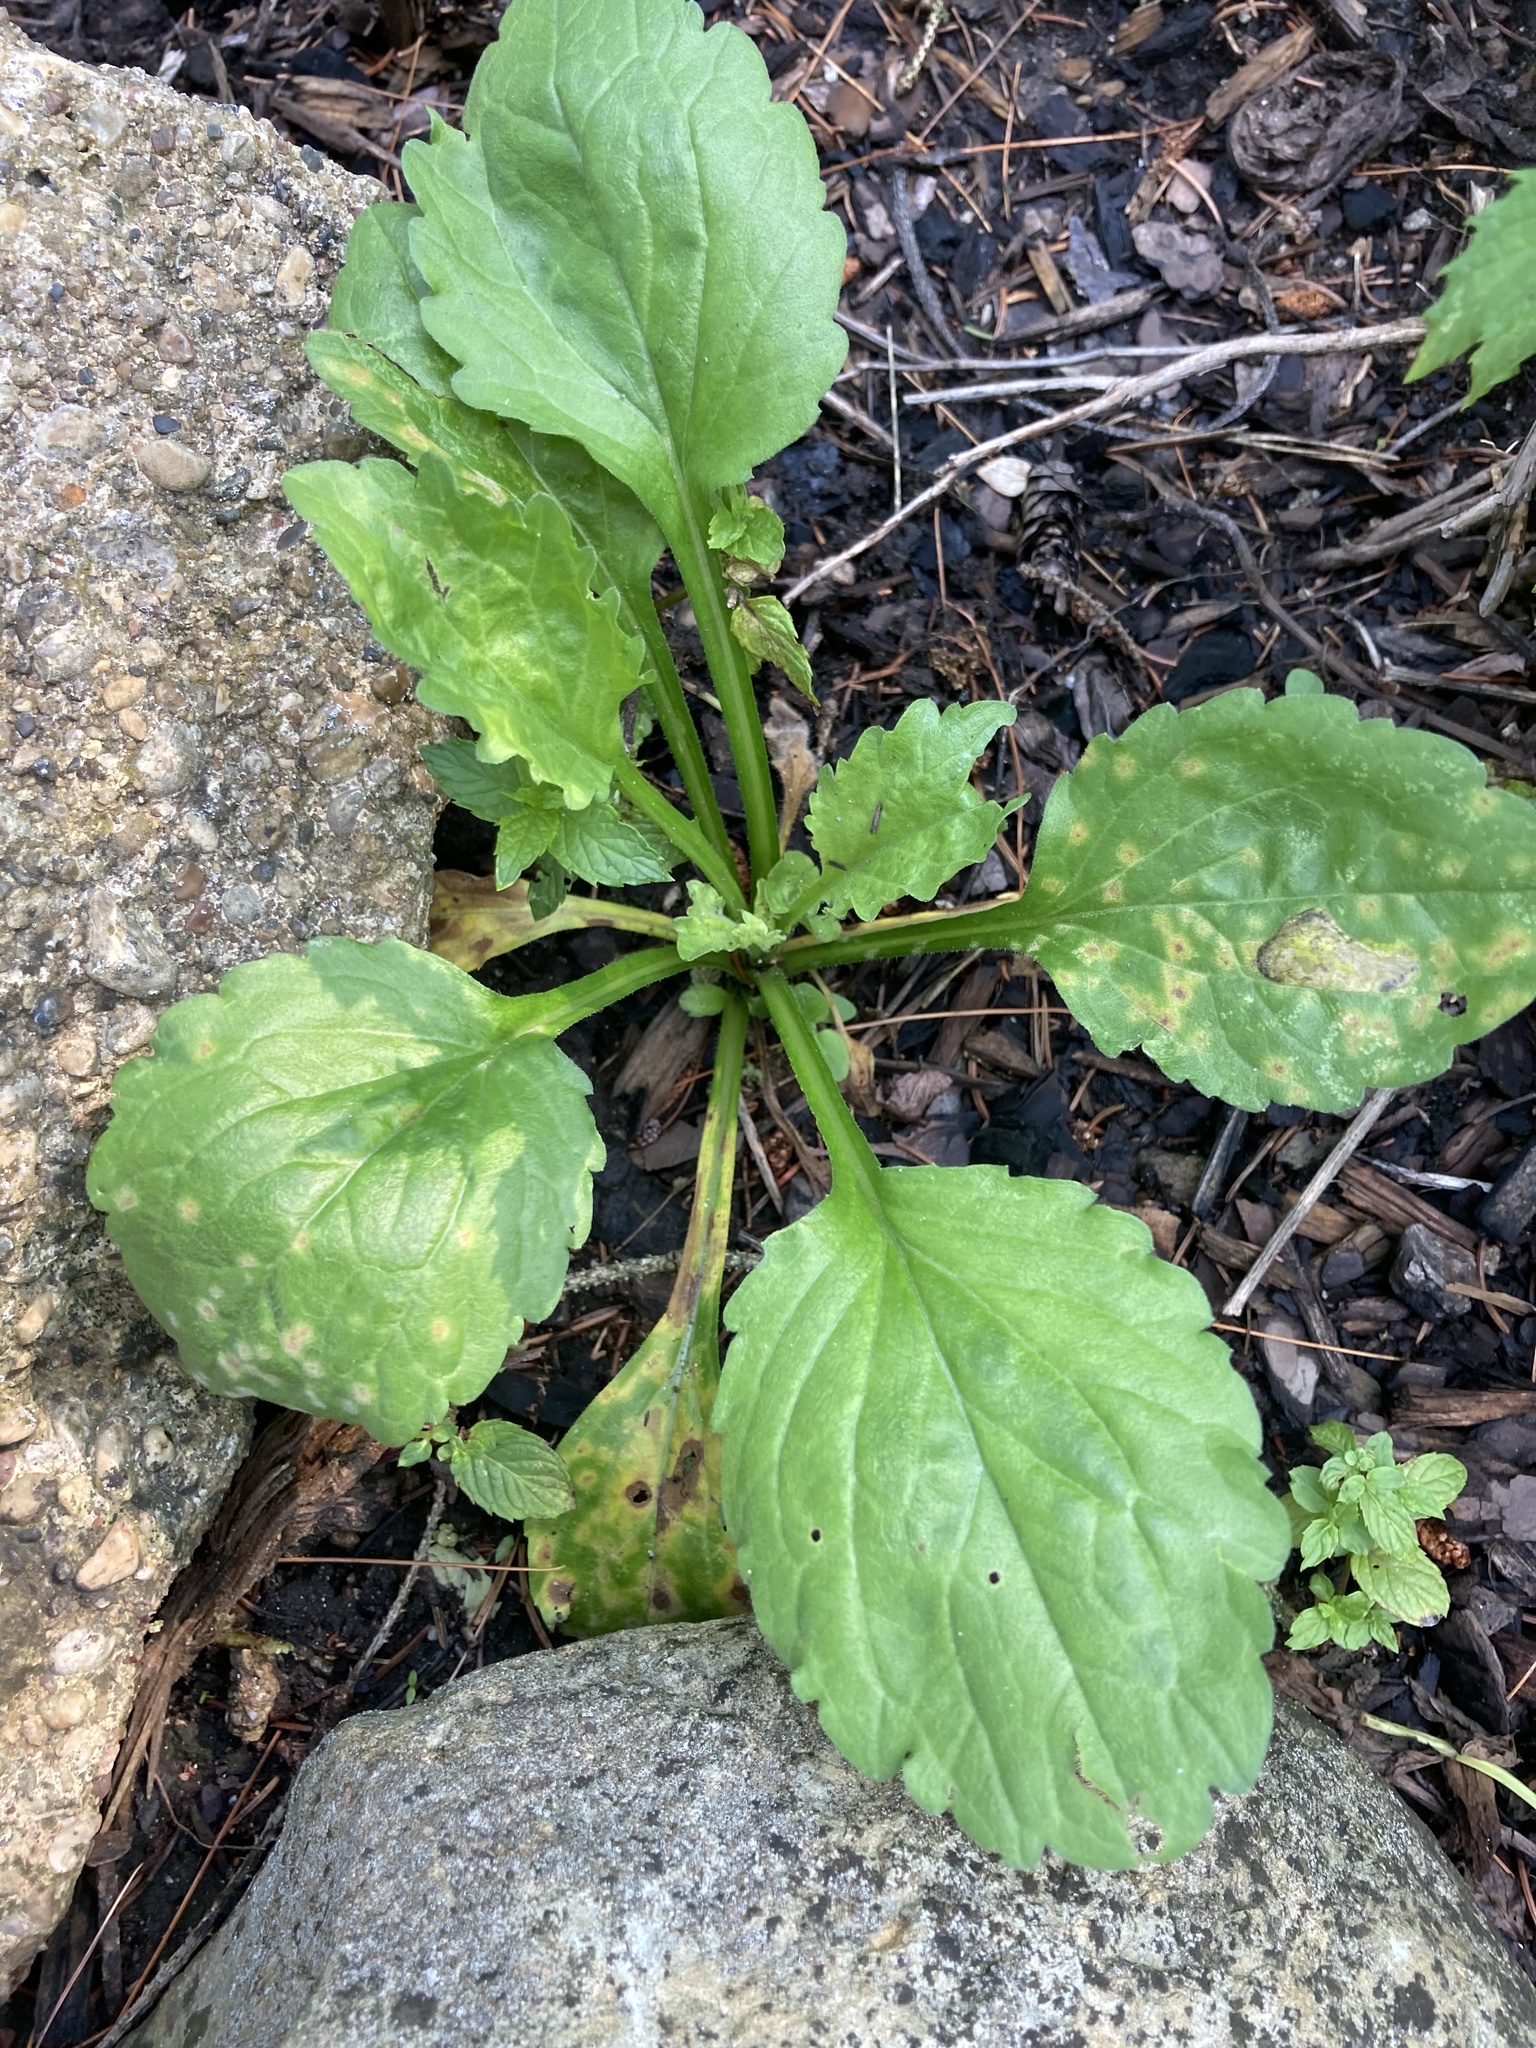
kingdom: Plantae
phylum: Tracheophyta
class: Magnoliopsida
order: Lamiales
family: Plantaginaceae
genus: Plantago
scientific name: Plantago major
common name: Common plantain
